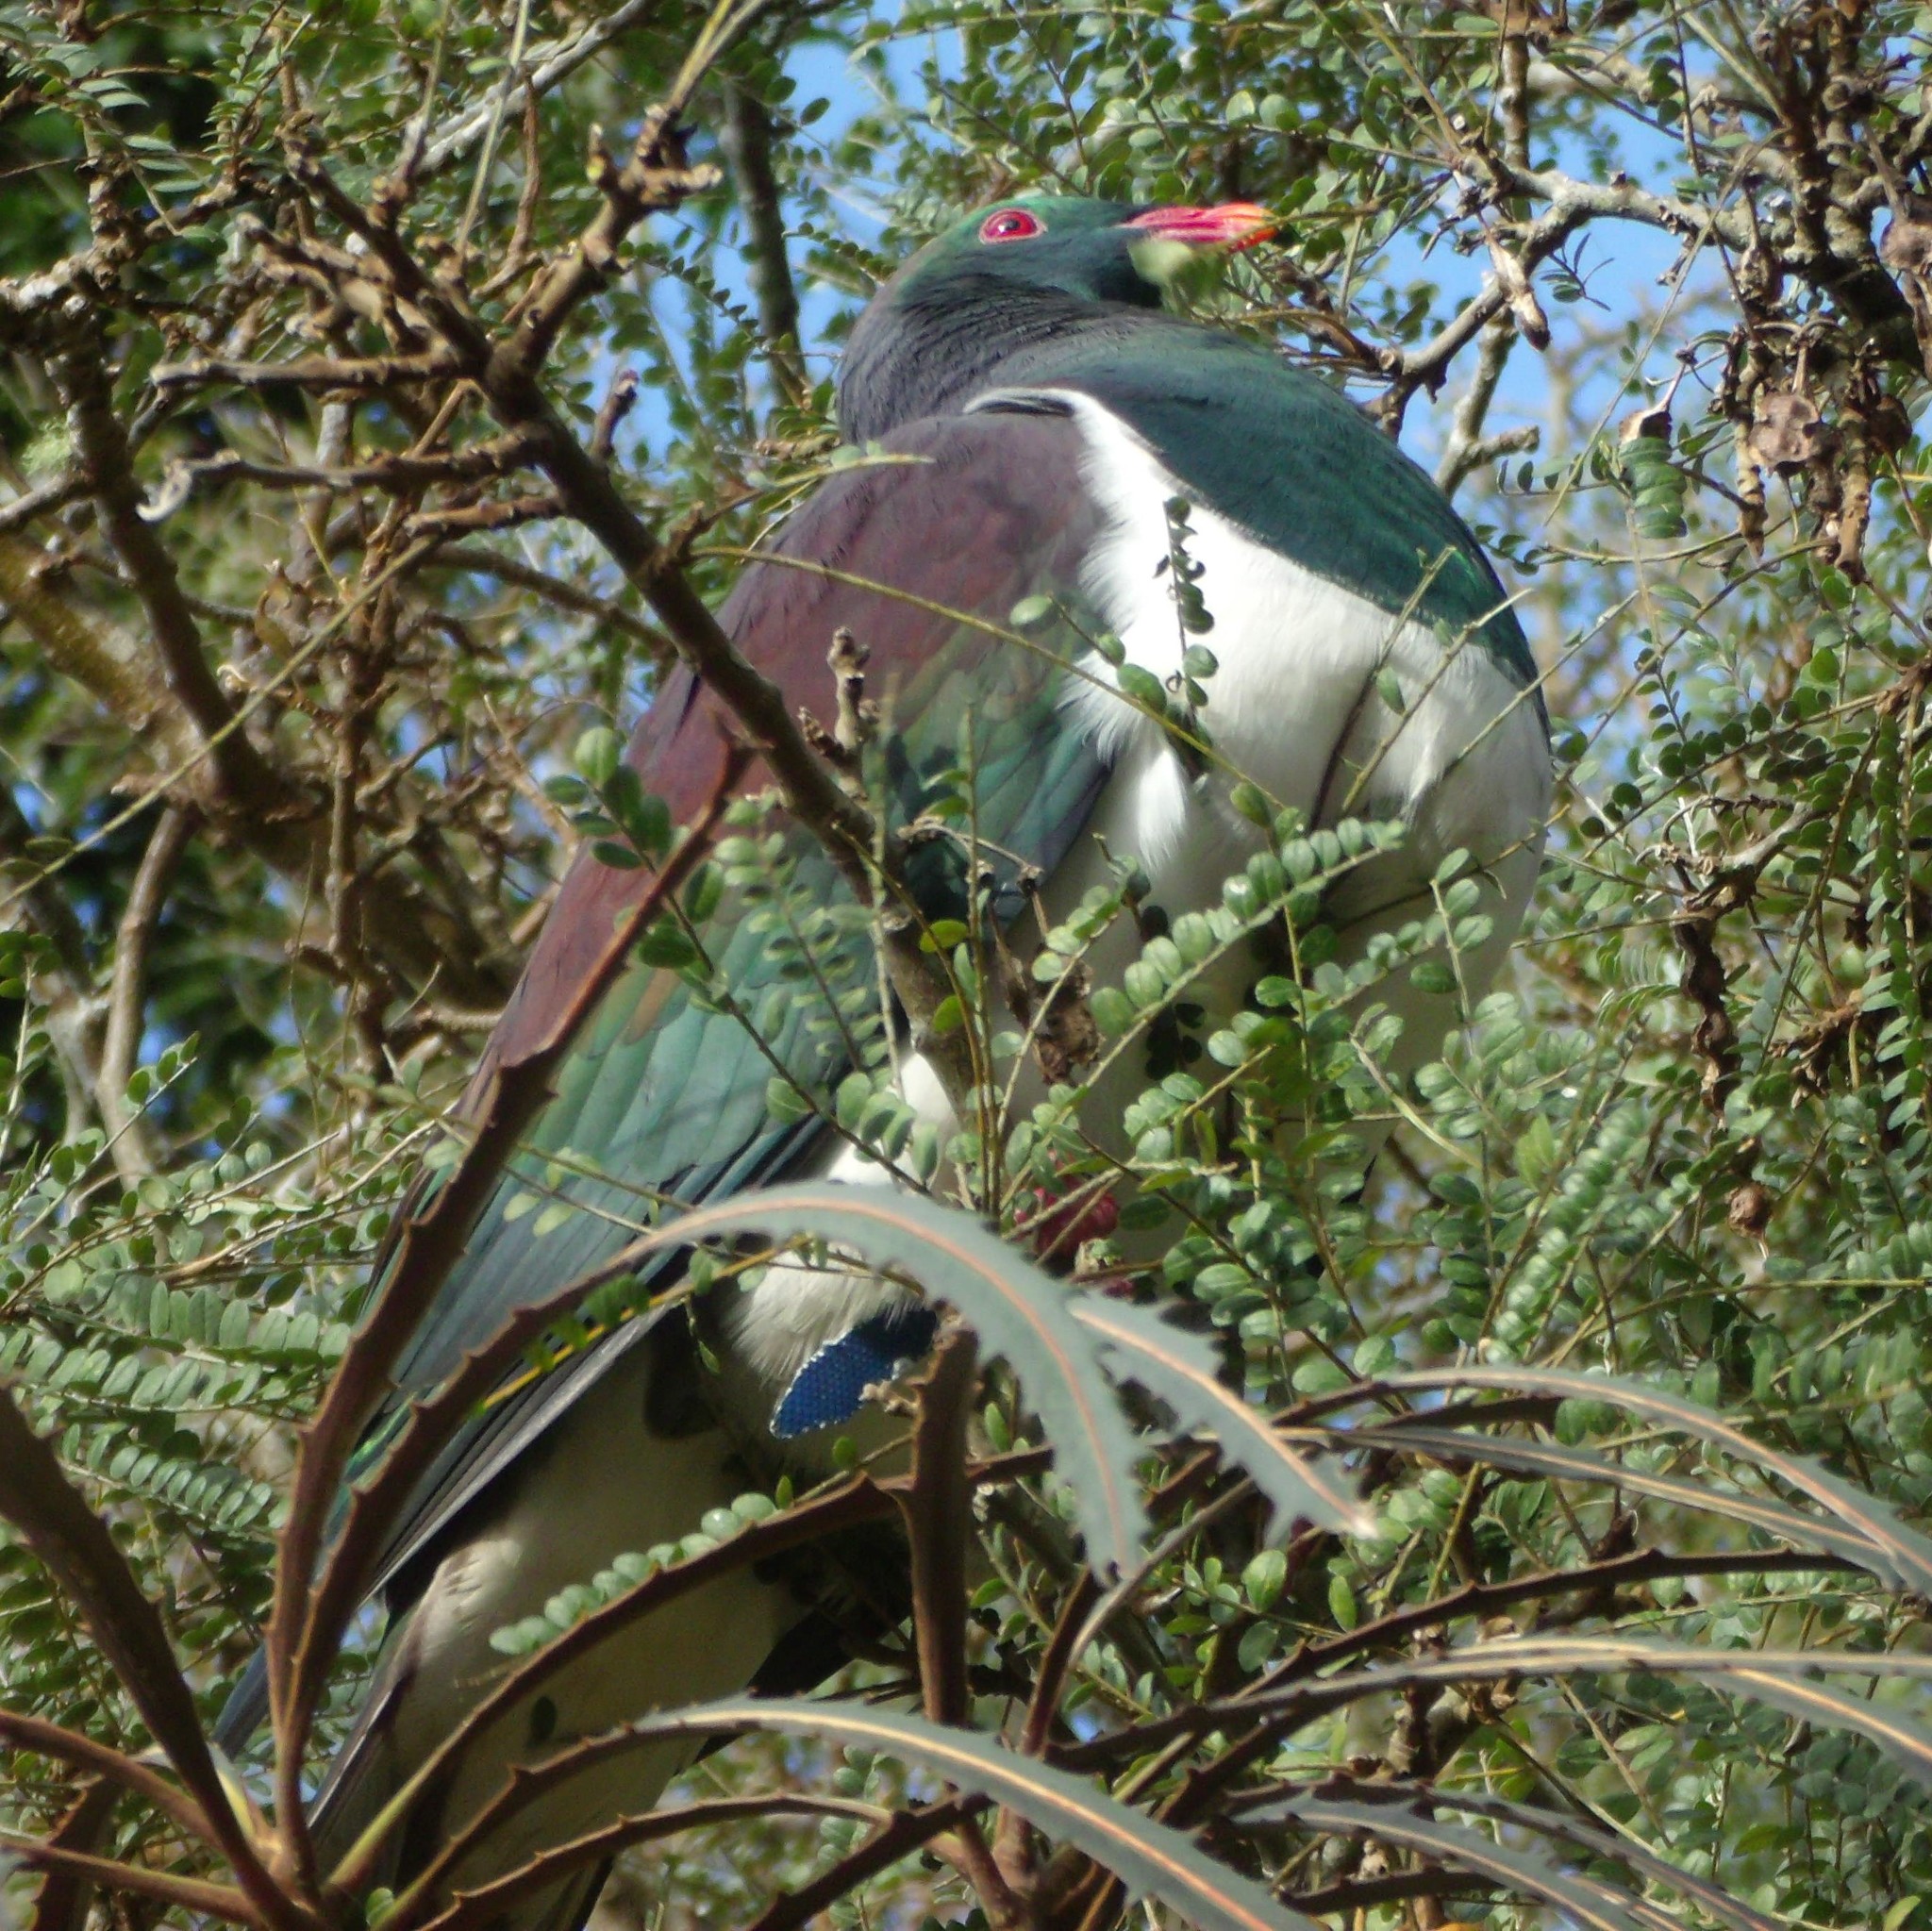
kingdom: Animalia
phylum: Chordata
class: Aves
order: Columbiformes
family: Columbidae
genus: Hemiphaga
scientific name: Hemiphaga novaeseelandiae
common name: New zealand pigeon
